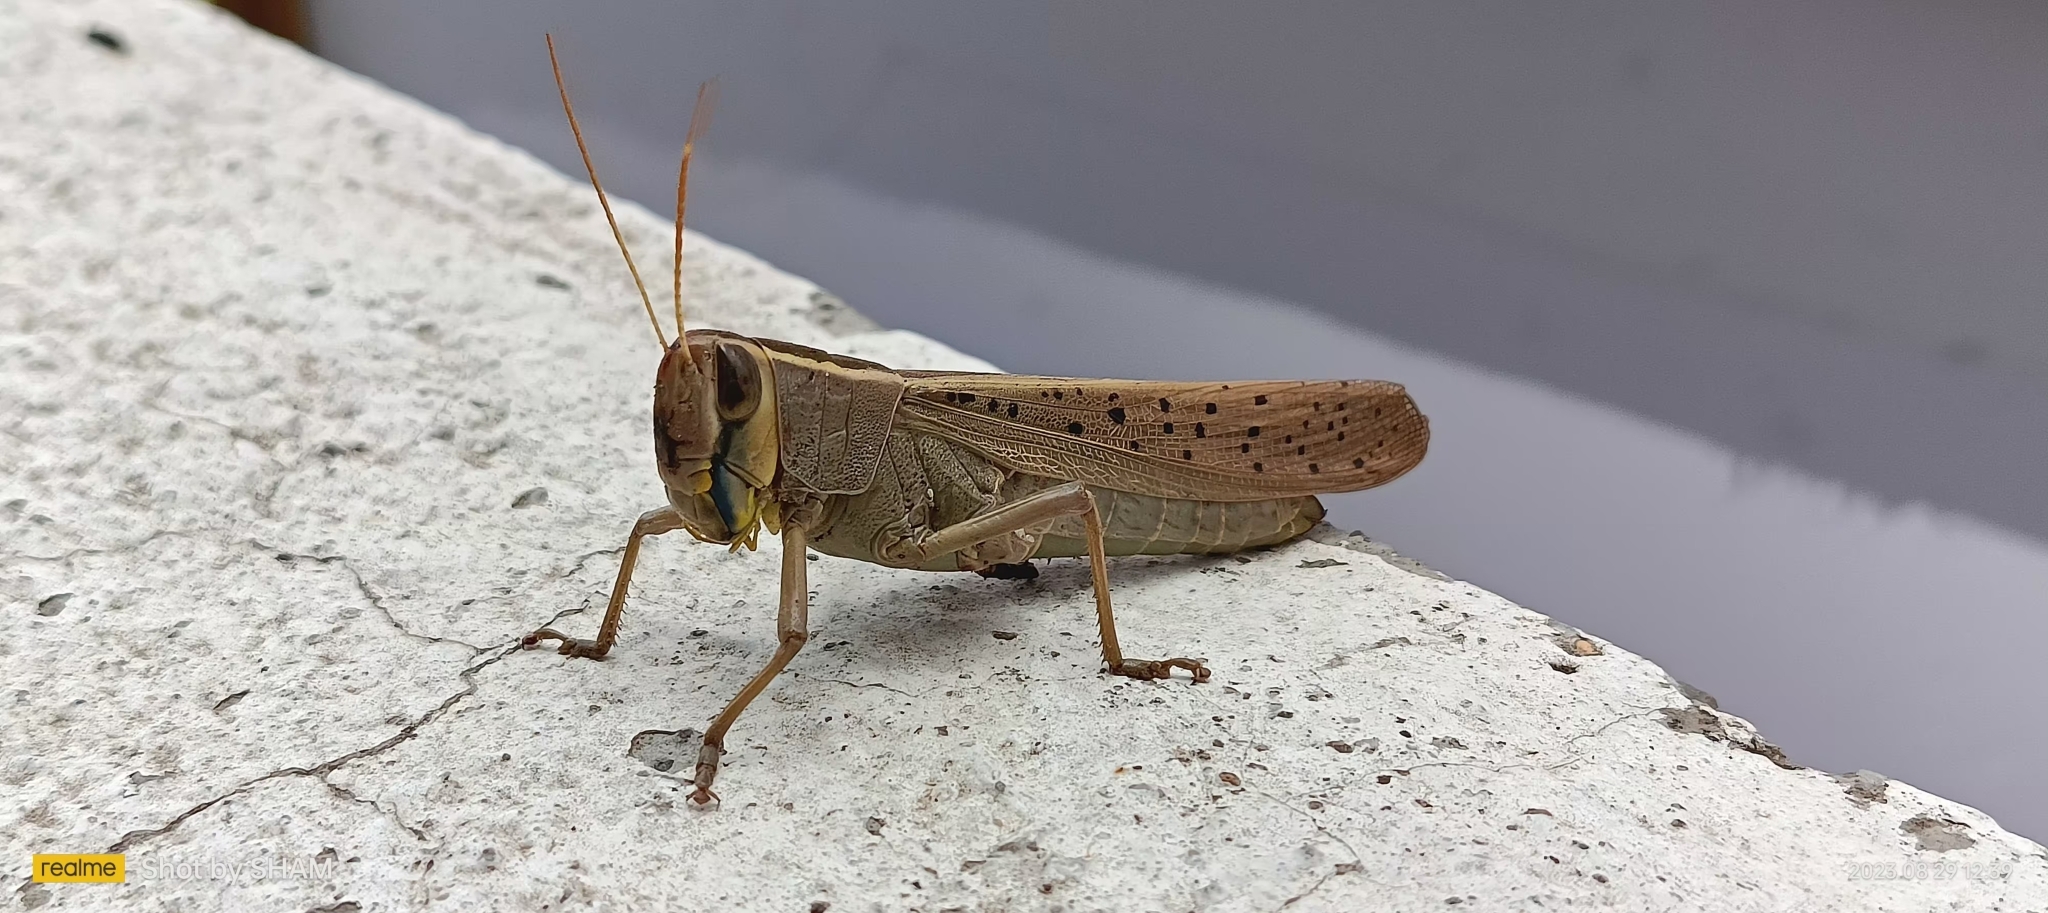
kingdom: Animalia
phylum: Arthropoda
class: Insecta
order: Orthoptera
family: Acrididae
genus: Heteracris
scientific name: Heteracris littoralis
